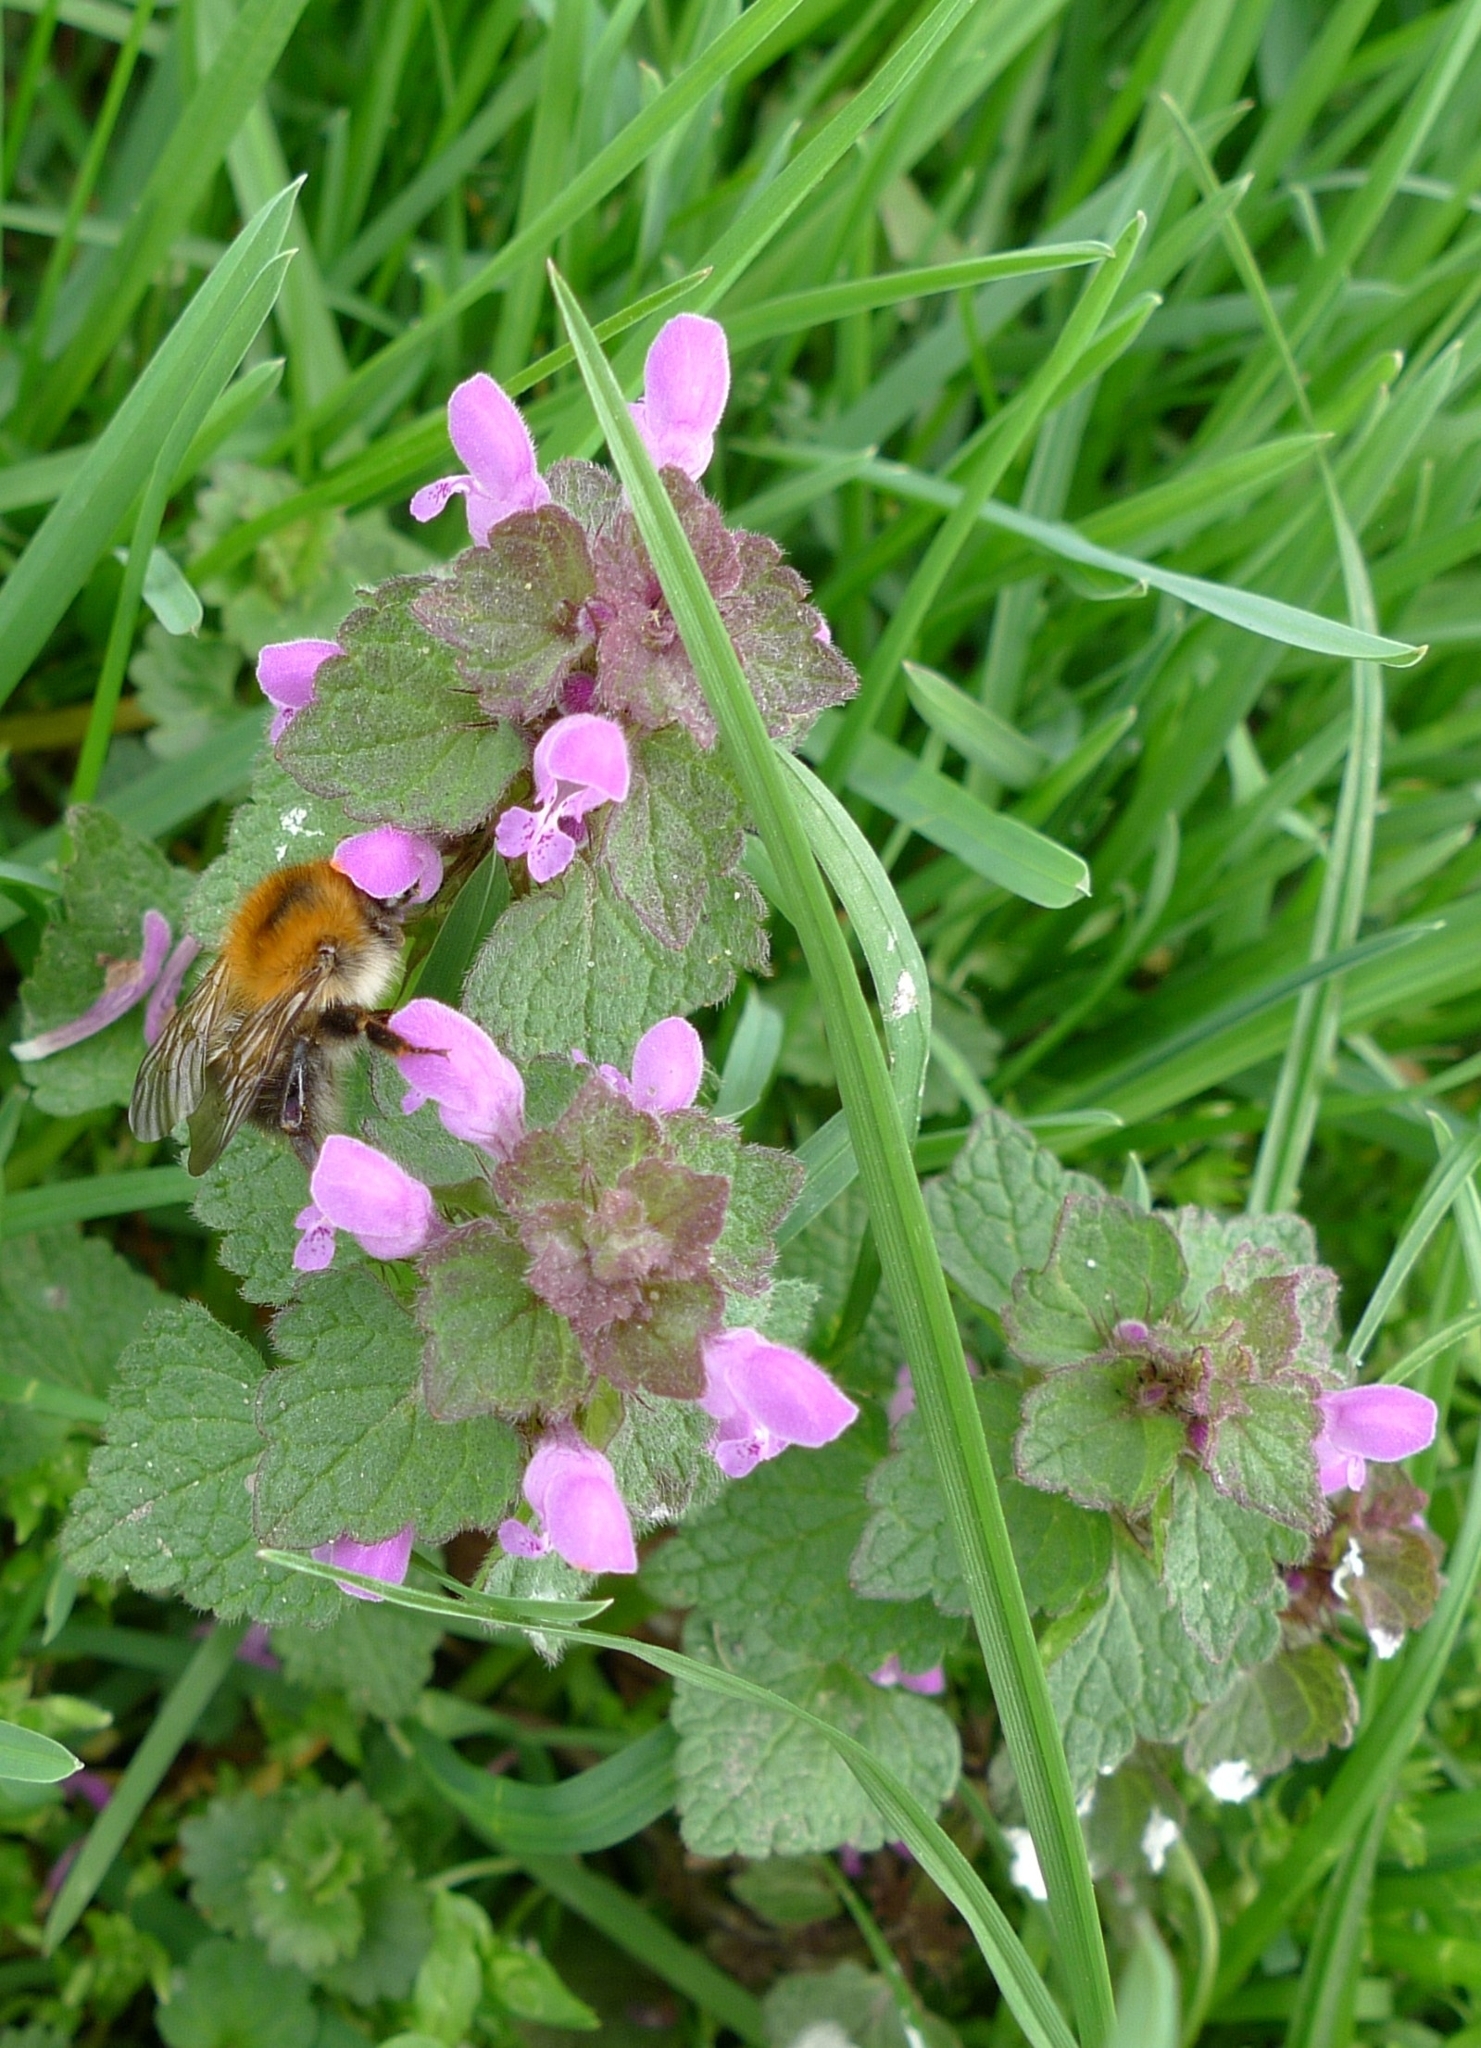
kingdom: Plantae
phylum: Tracheophyta
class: Magnoliopsida
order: Lamiales
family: Lamiaceae
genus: Lamium
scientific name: Lamium purpureum
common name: Red dead-nettle
